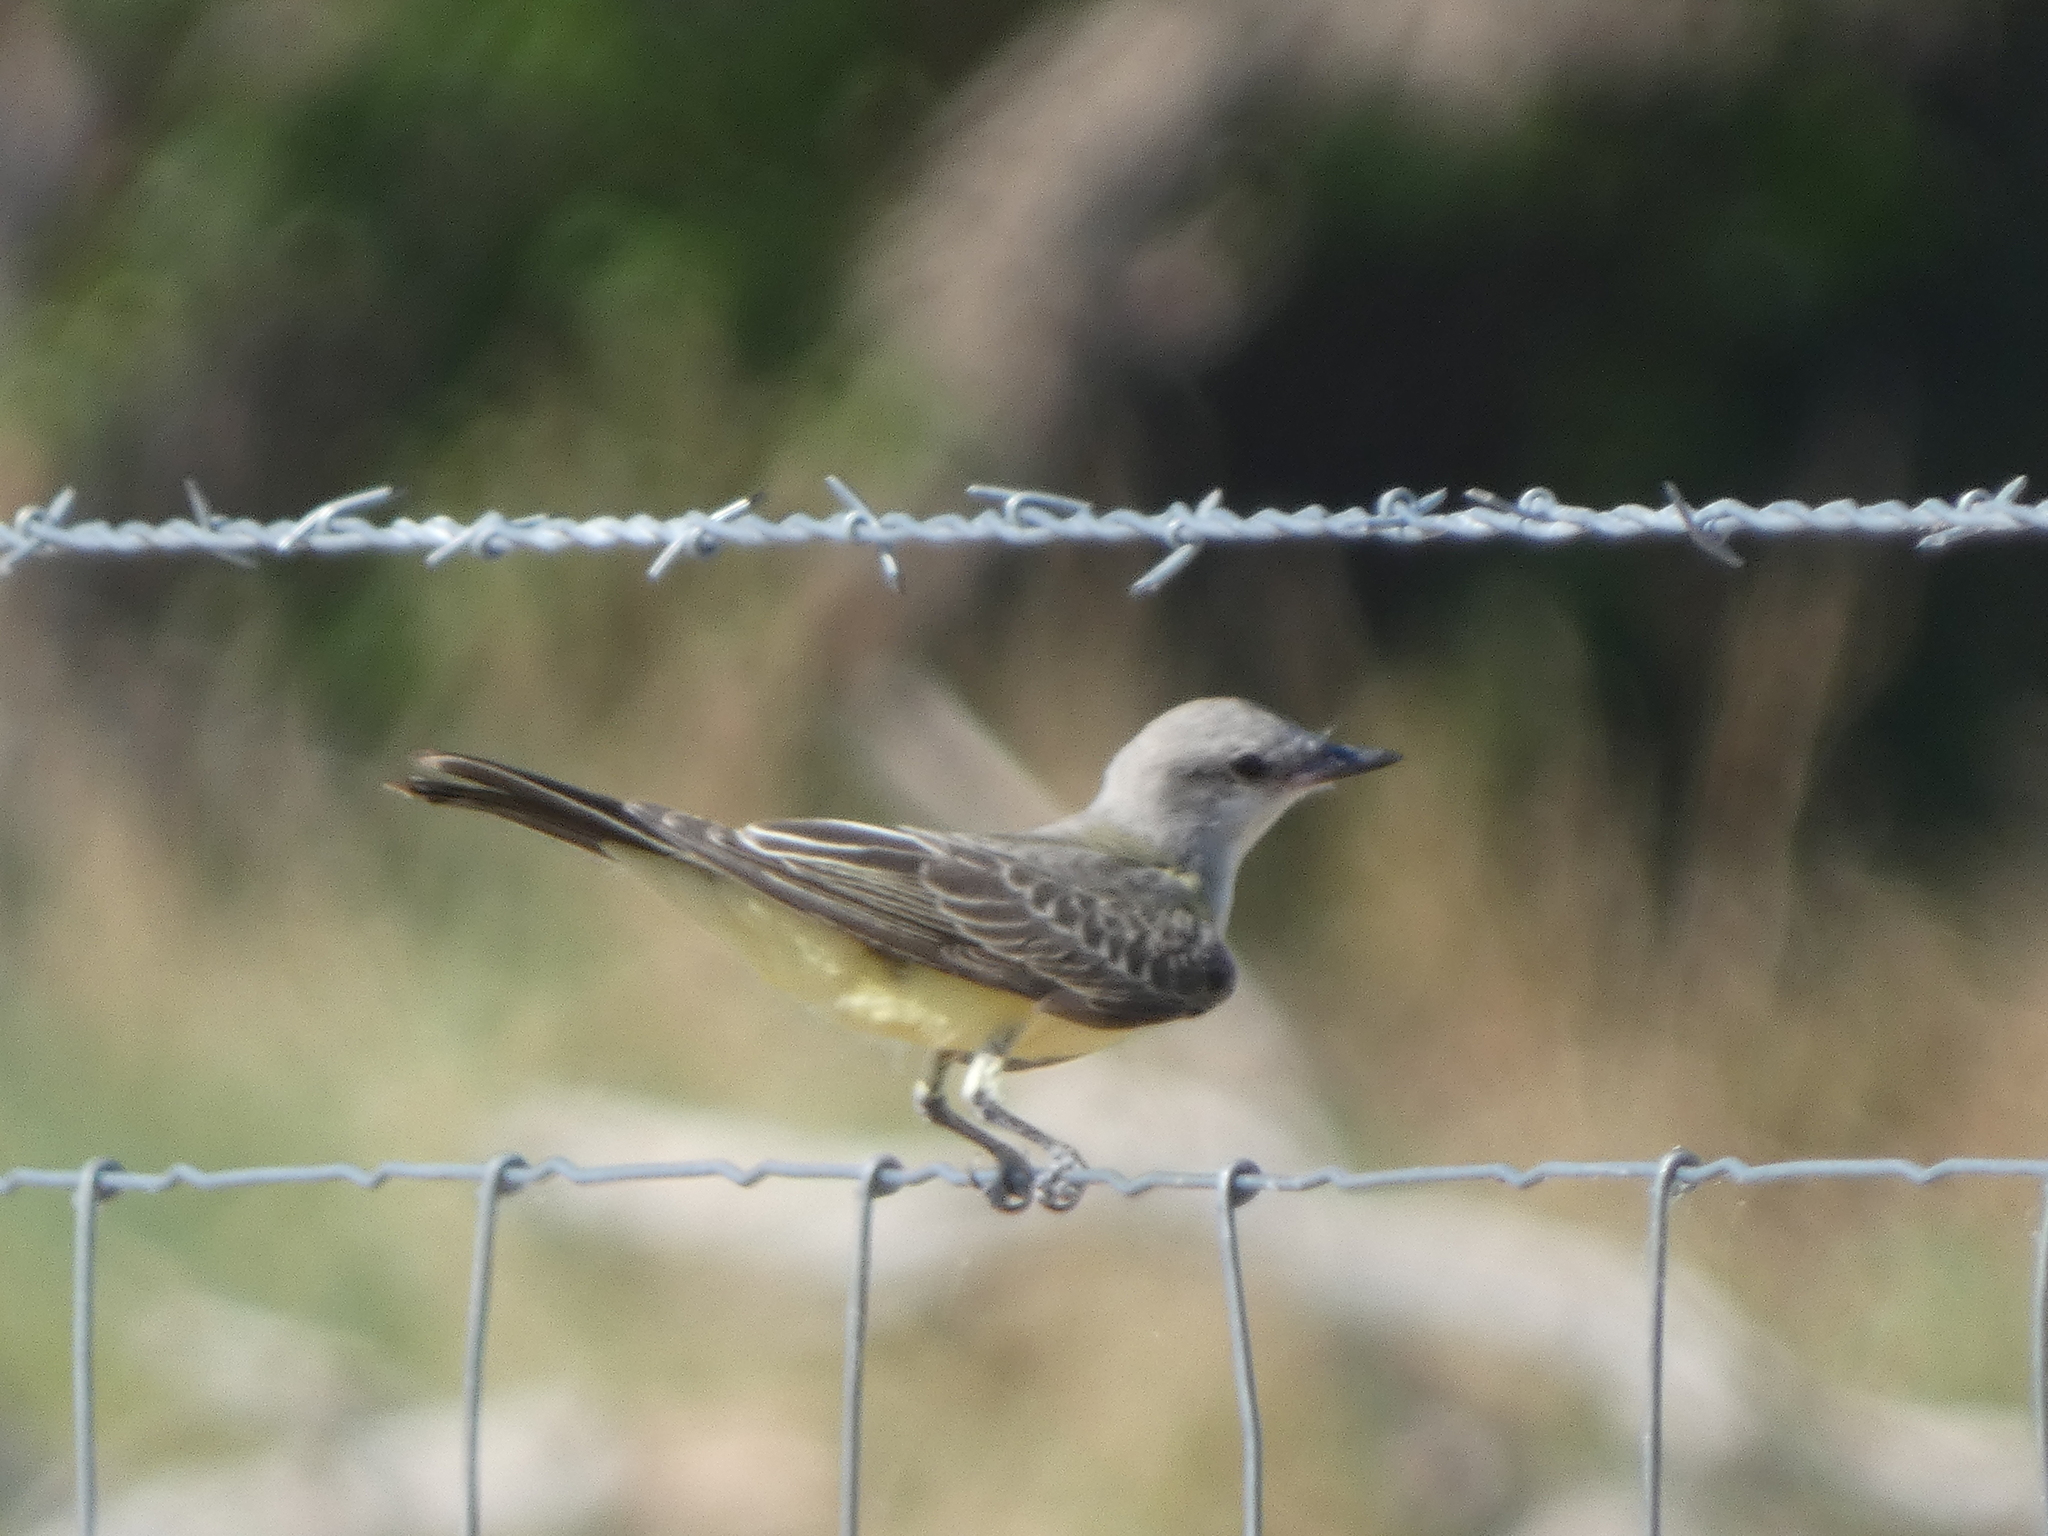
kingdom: Animalia
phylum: Chordata
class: Aves
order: Passeriformes
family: Tyrannidae
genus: Tyrannus
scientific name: Tyrannus verticalis
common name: Western kingbird
